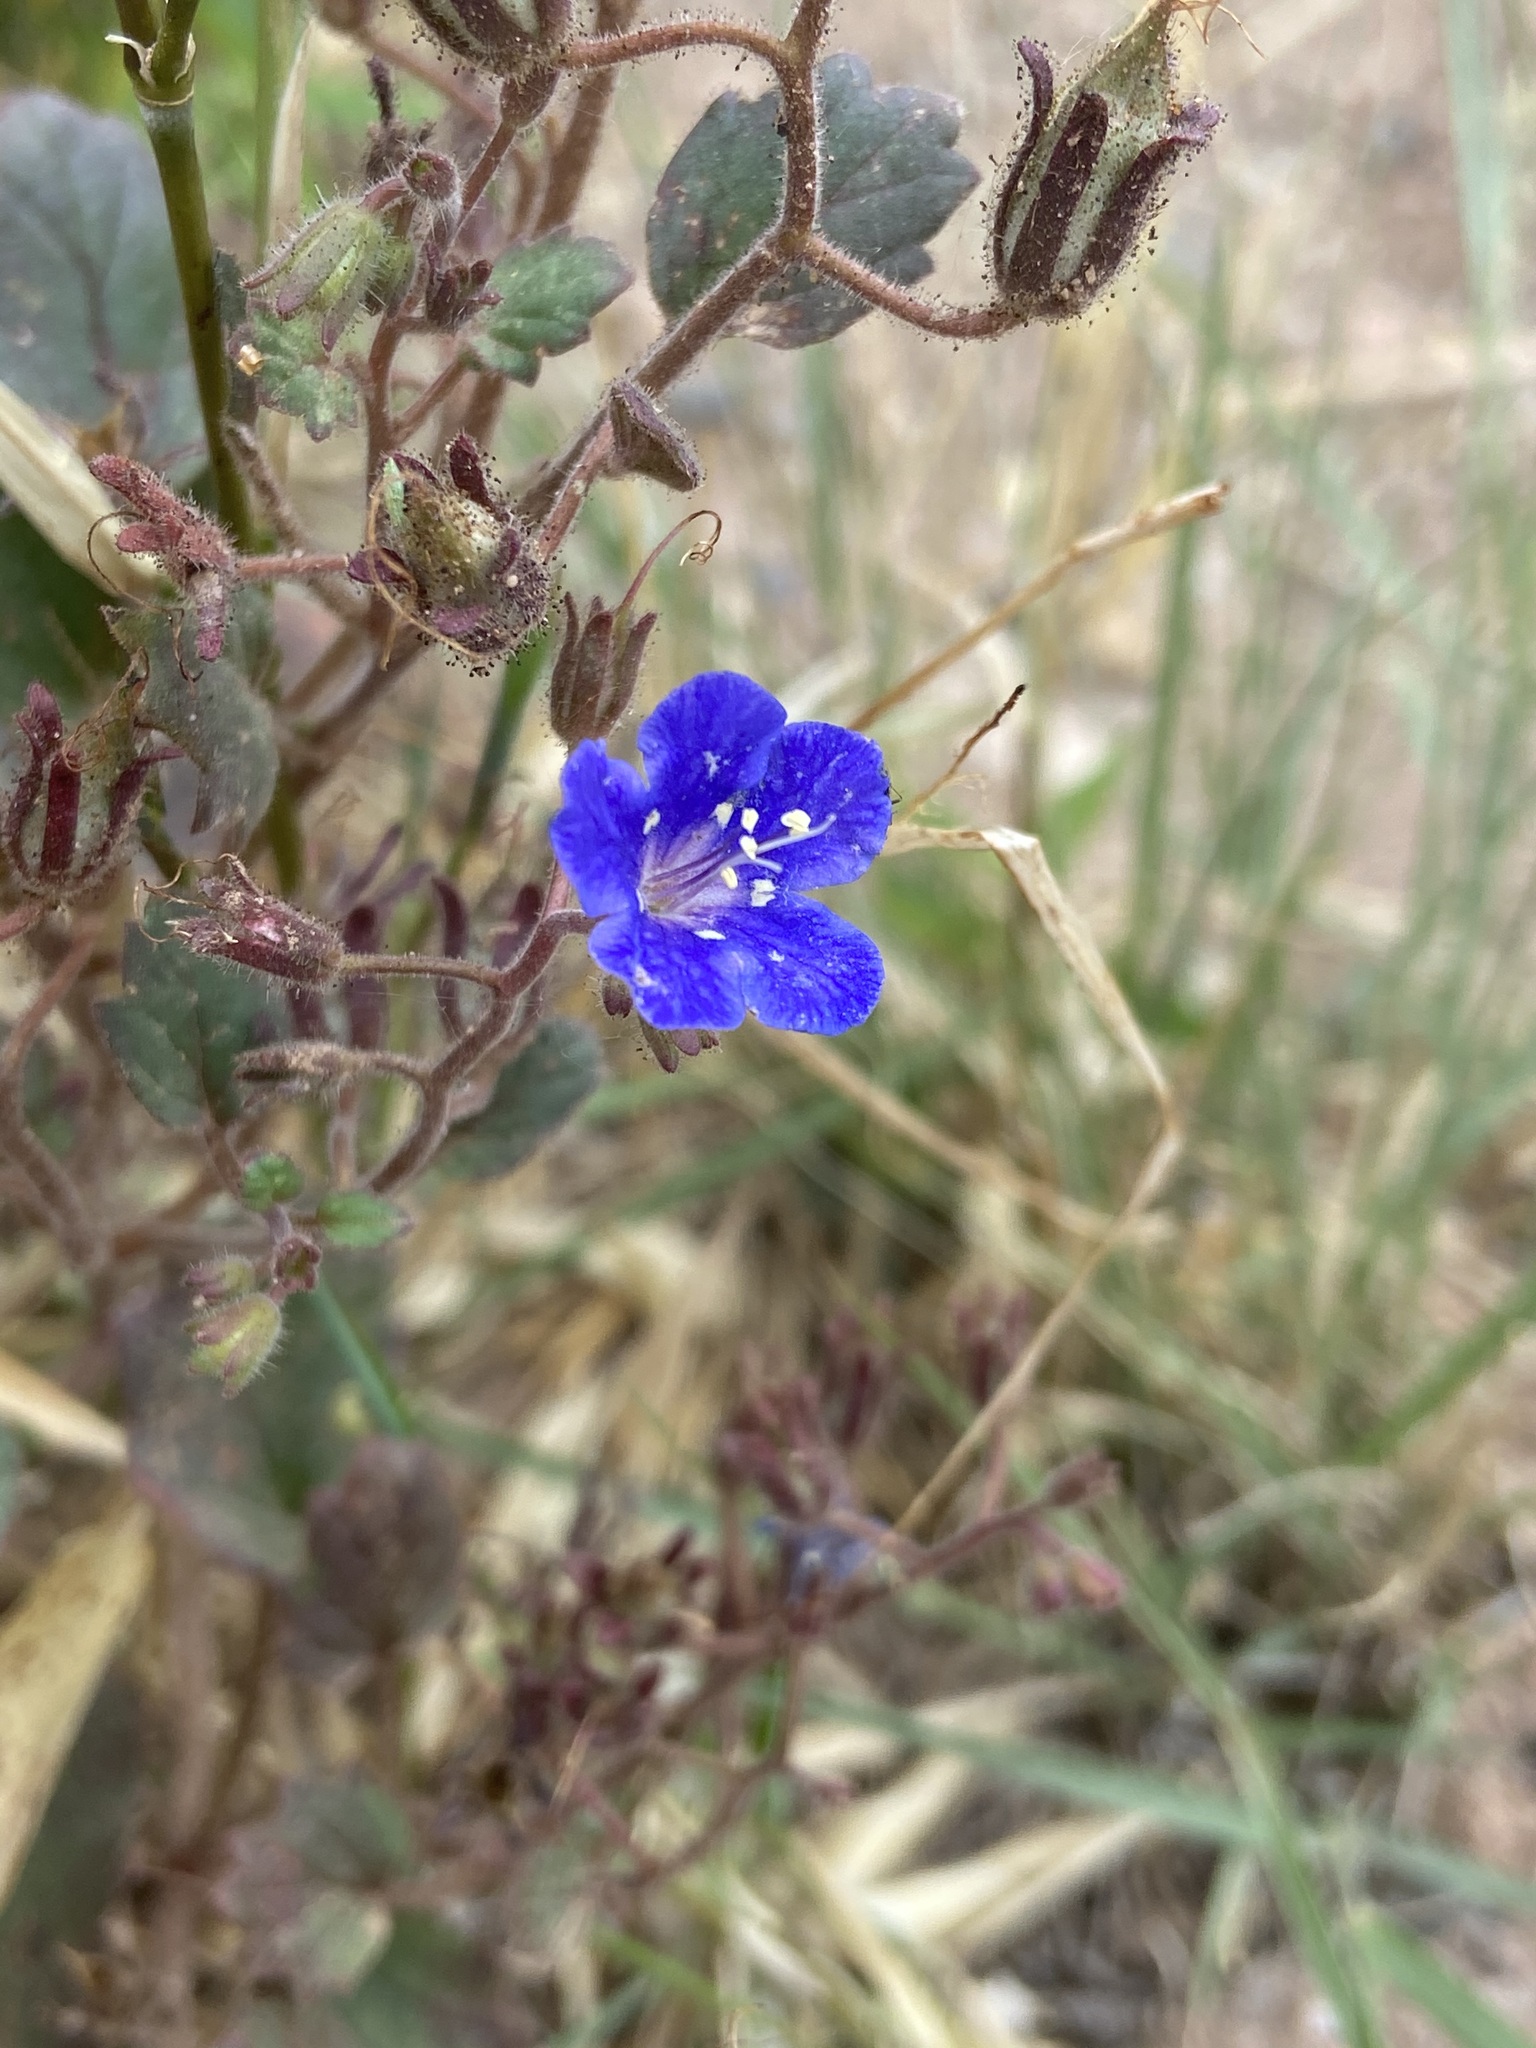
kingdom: Plantae
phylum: Tracheophyta
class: Magnoliopsida
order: Boraginales
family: Hydrophyllaceae
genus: Phacelia
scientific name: Phacelia campanularia
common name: California bluebell
